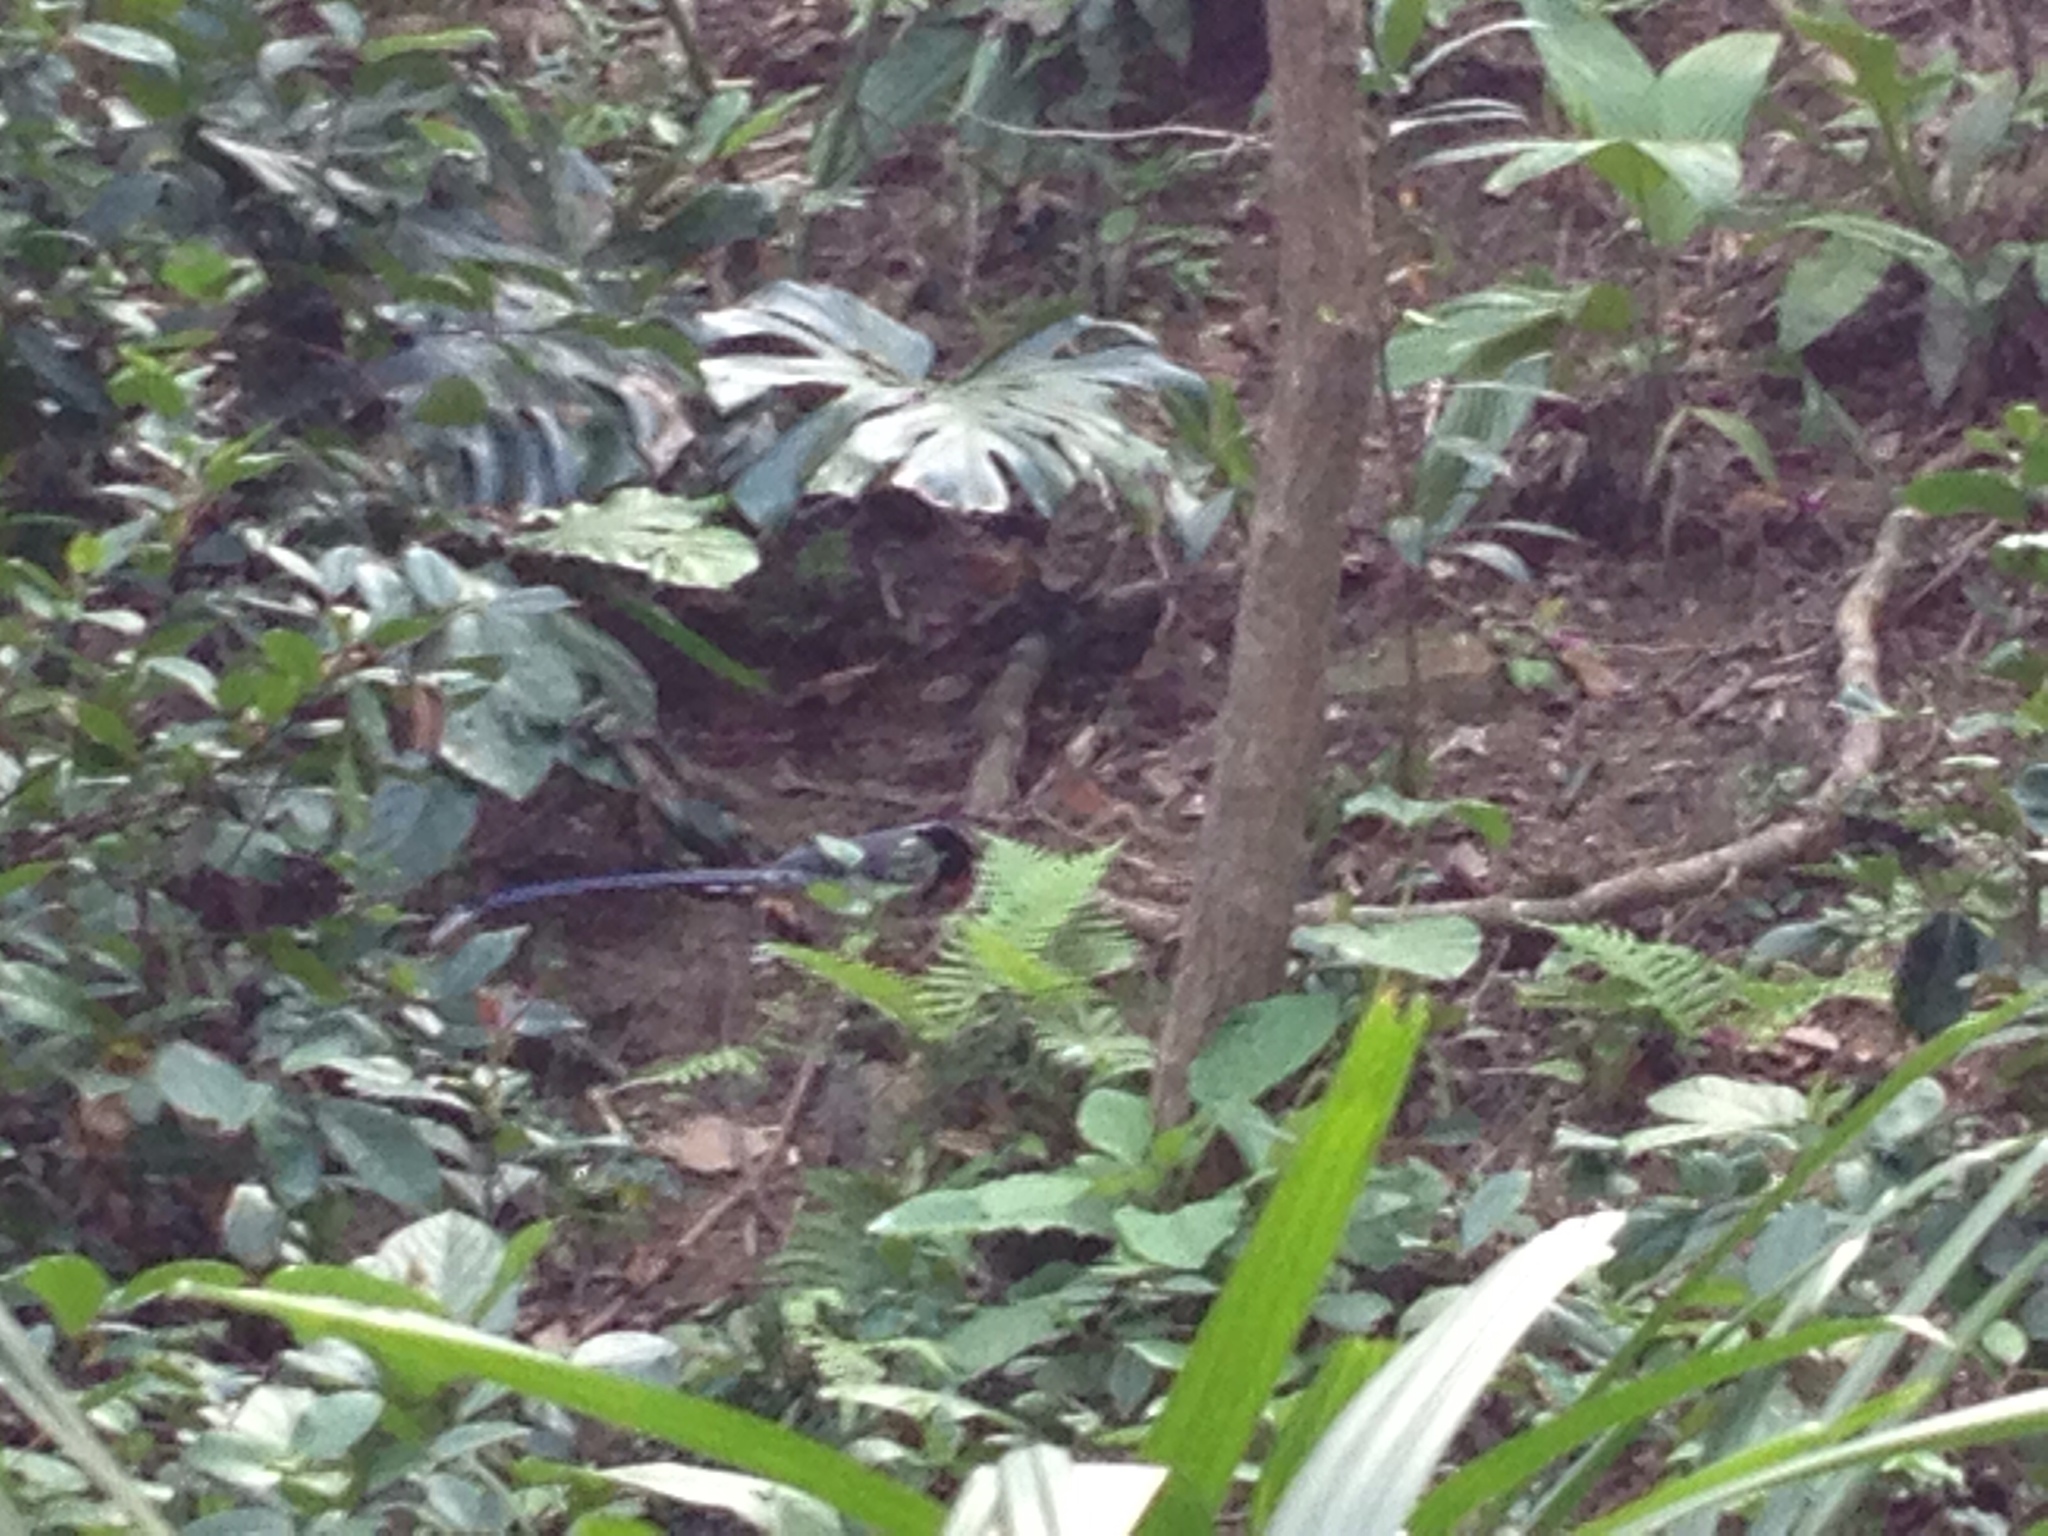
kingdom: Animalia
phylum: Chordata
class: Aves
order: Passeriformes
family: Corvidae
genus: Urocissa
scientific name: Urocissa erythroryncha
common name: Red-billed blue magpie
